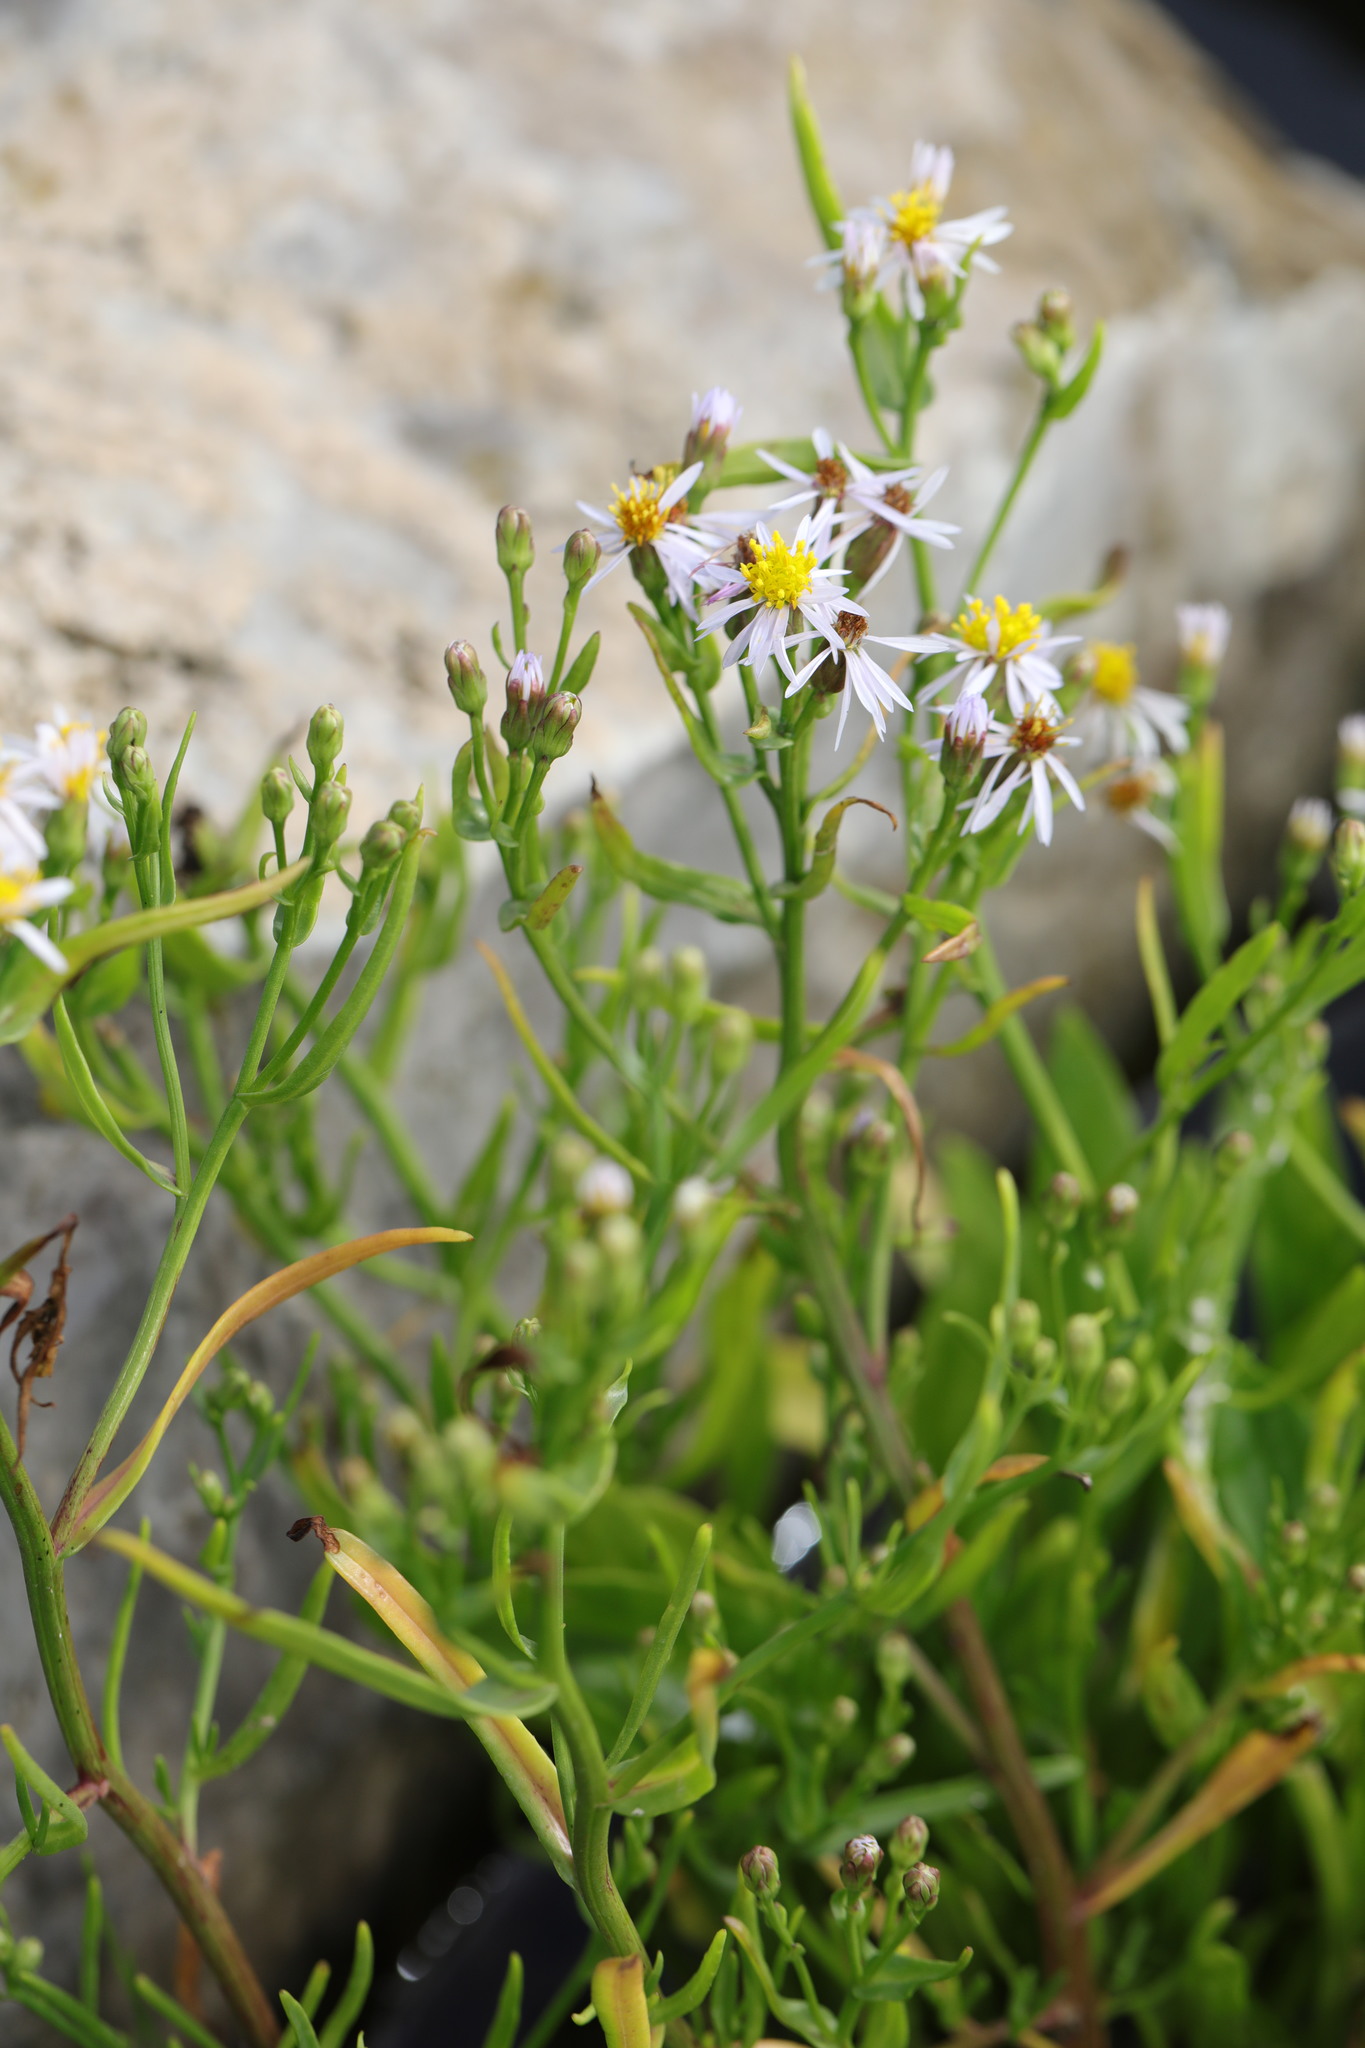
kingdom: Plantae
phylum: Tracheophyta
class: Magnoliopsida
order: Asterales
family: Asteraceae
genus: Tripolium
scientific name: Tripolium pannonicum
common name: Sea aster
